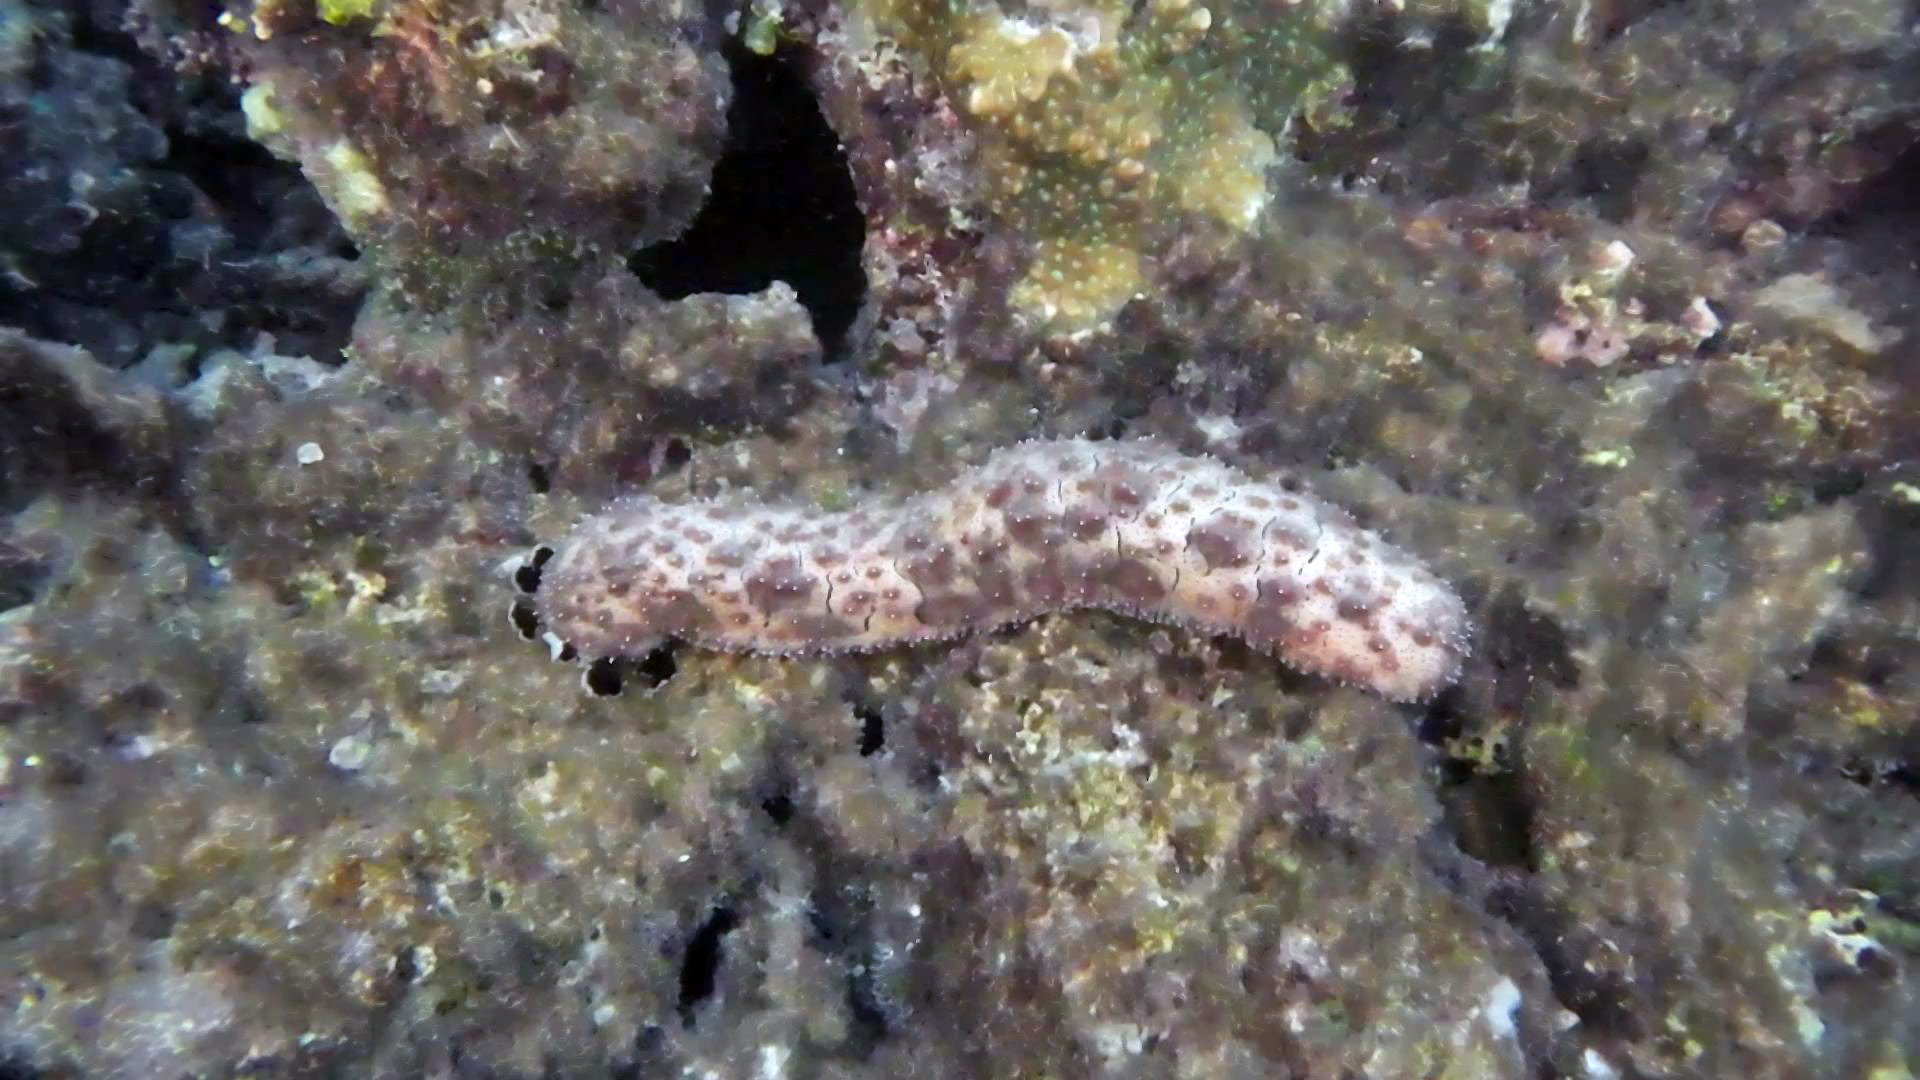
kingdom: Animalia
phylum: Echinodermata
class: Holothuroidea
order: Holothuriida
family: Holothuriidae
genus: Pearsonothuria
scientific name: Pearsonothuria graeffei
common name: Blackspotted sea cucumber
